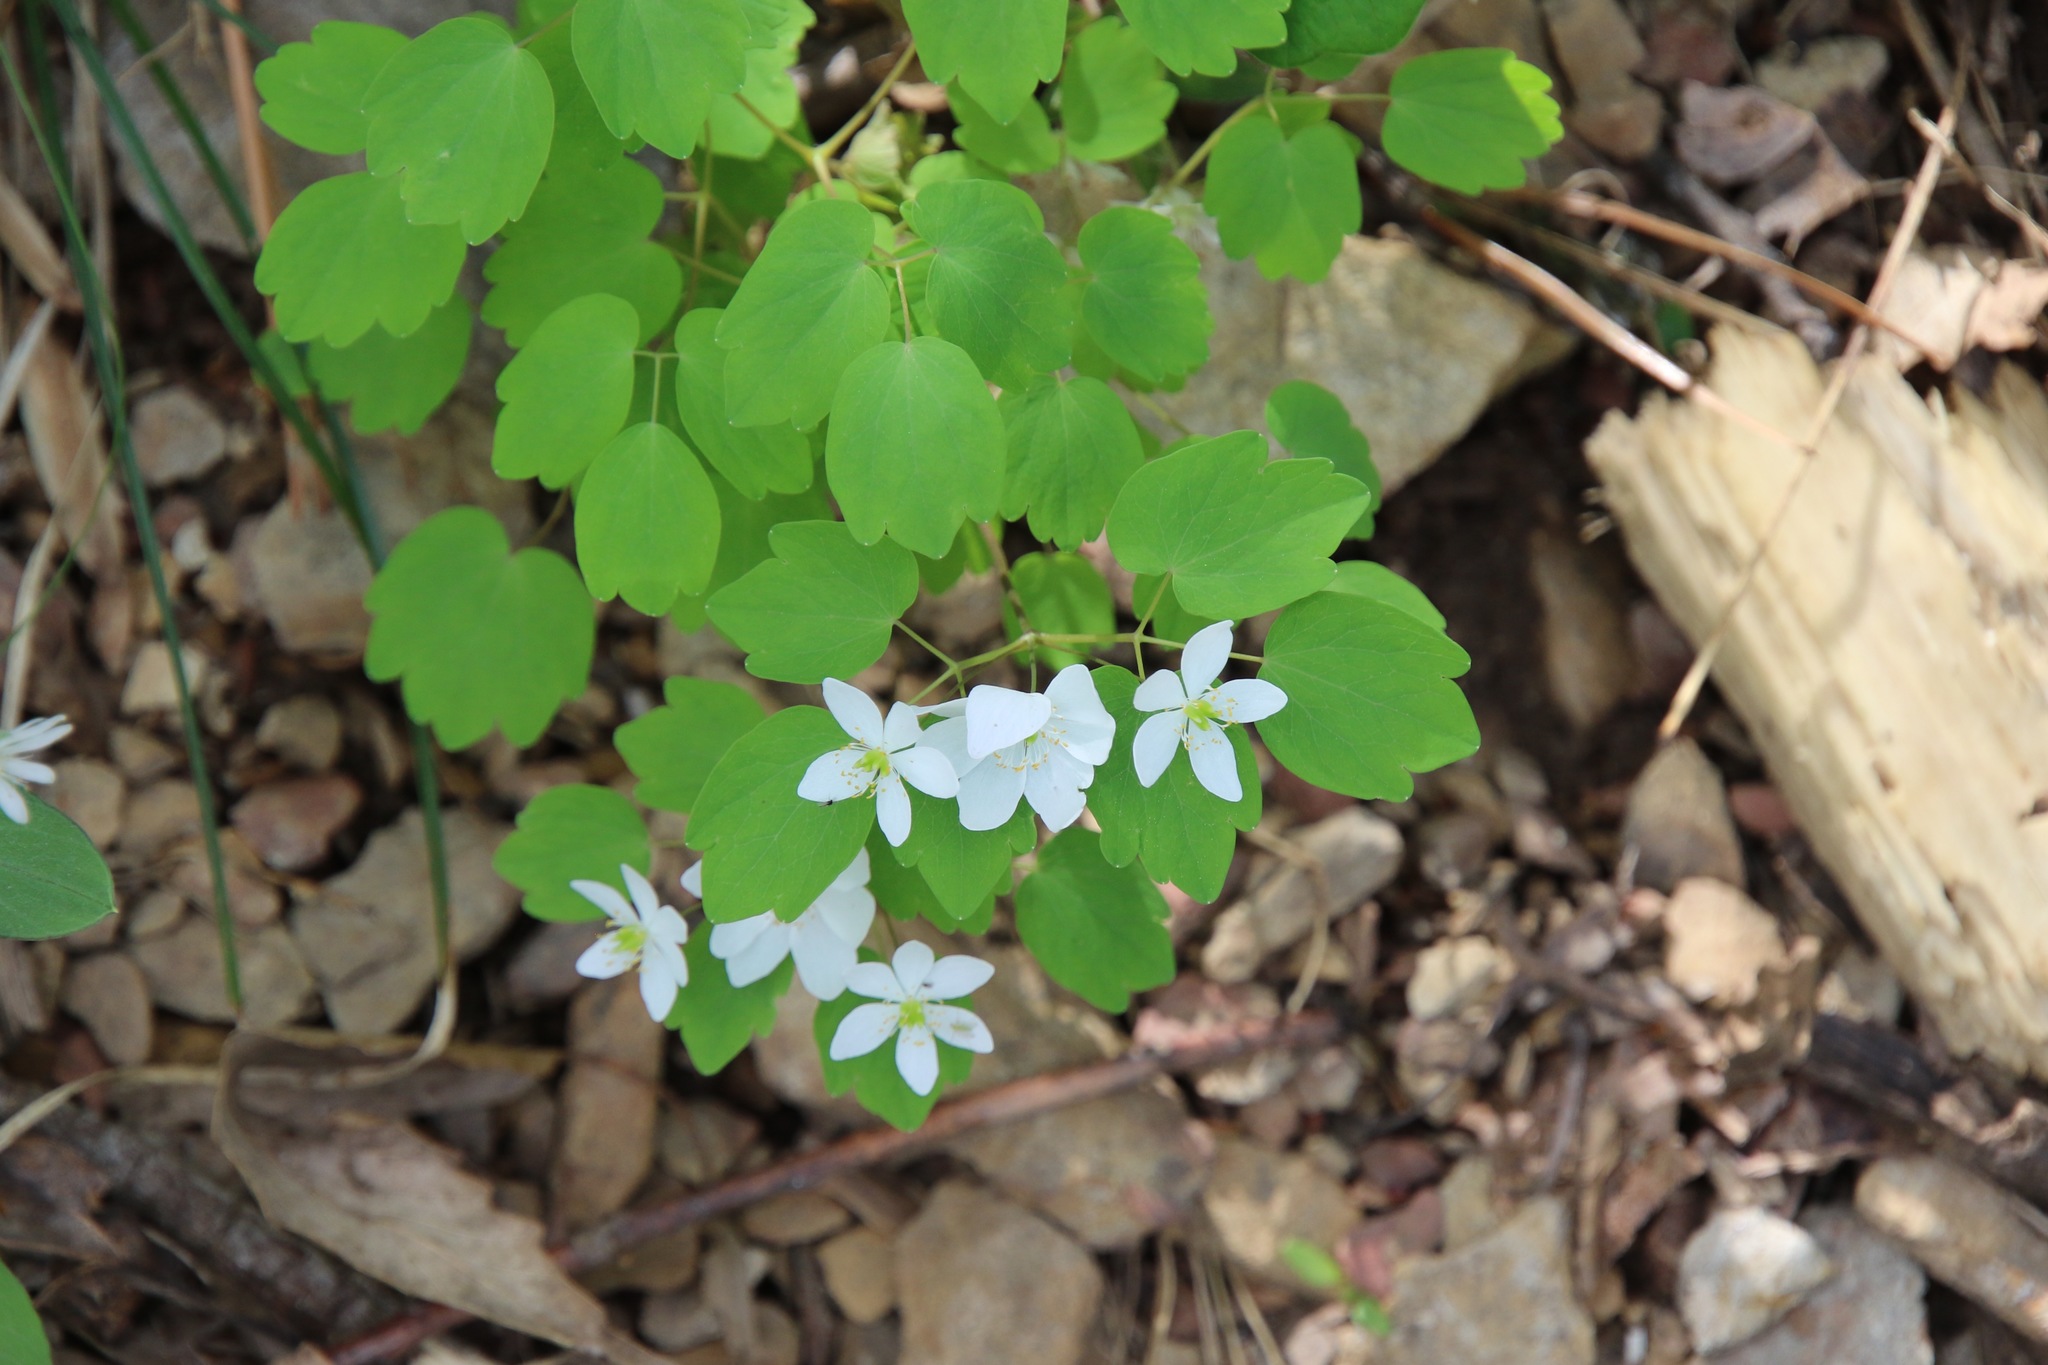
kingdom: Plantae
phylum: Tracheophyta
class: Magnoliopsida
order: Ranunculales
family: Ranunculaceae
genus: Thalictrum
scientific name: Thalictrum thalictroides
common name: Rue-anemone
